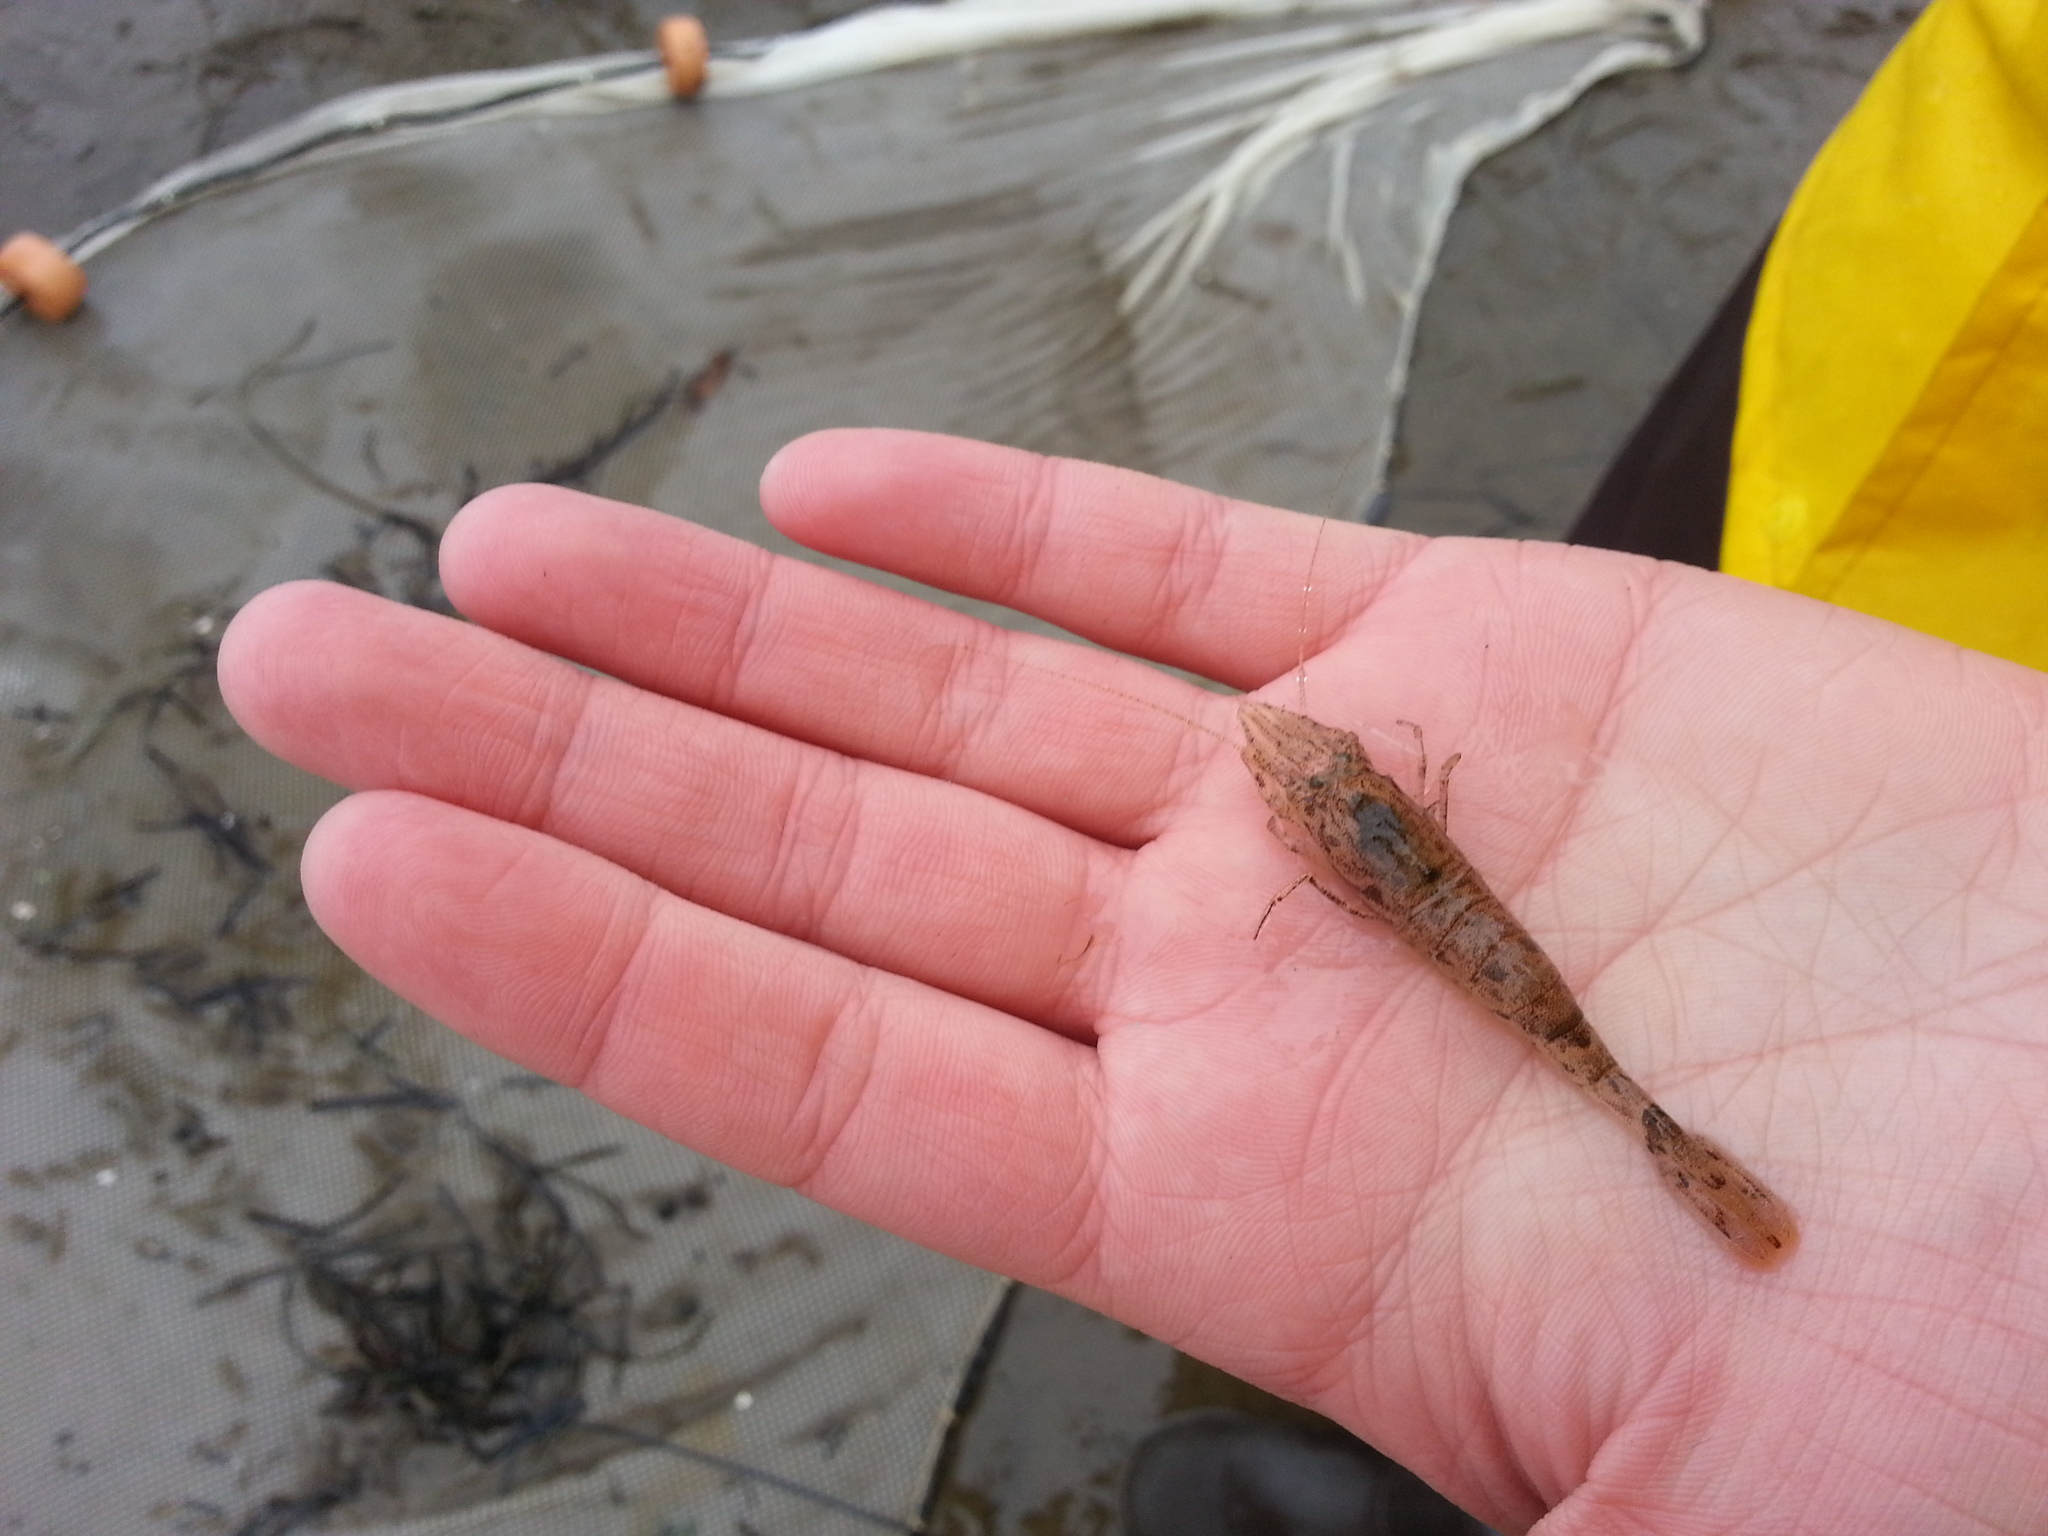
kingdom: Animalia
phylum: Arthropoda
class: Malacostraca
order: Decapoda
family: Crangonidae
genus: Crangon
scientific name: Crangon septemspinosa
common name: Bail shrimp
